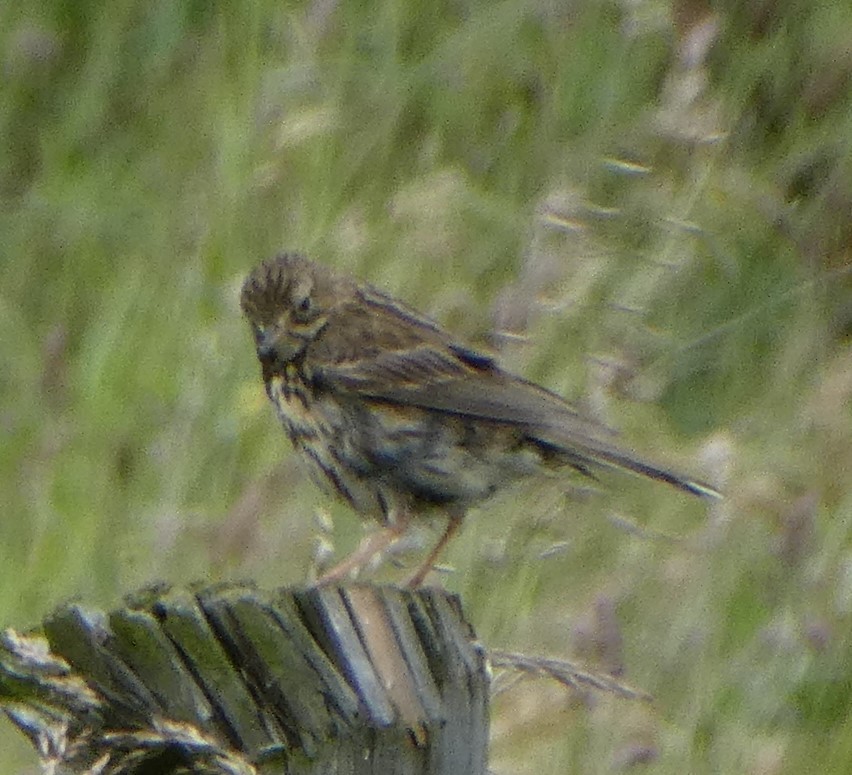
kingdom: Animalia
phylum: Chordata
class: Aves
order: Passeriformes
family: Motacillidae
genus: Anthus
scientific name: Anthus pratensis
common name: Meadow pipit
